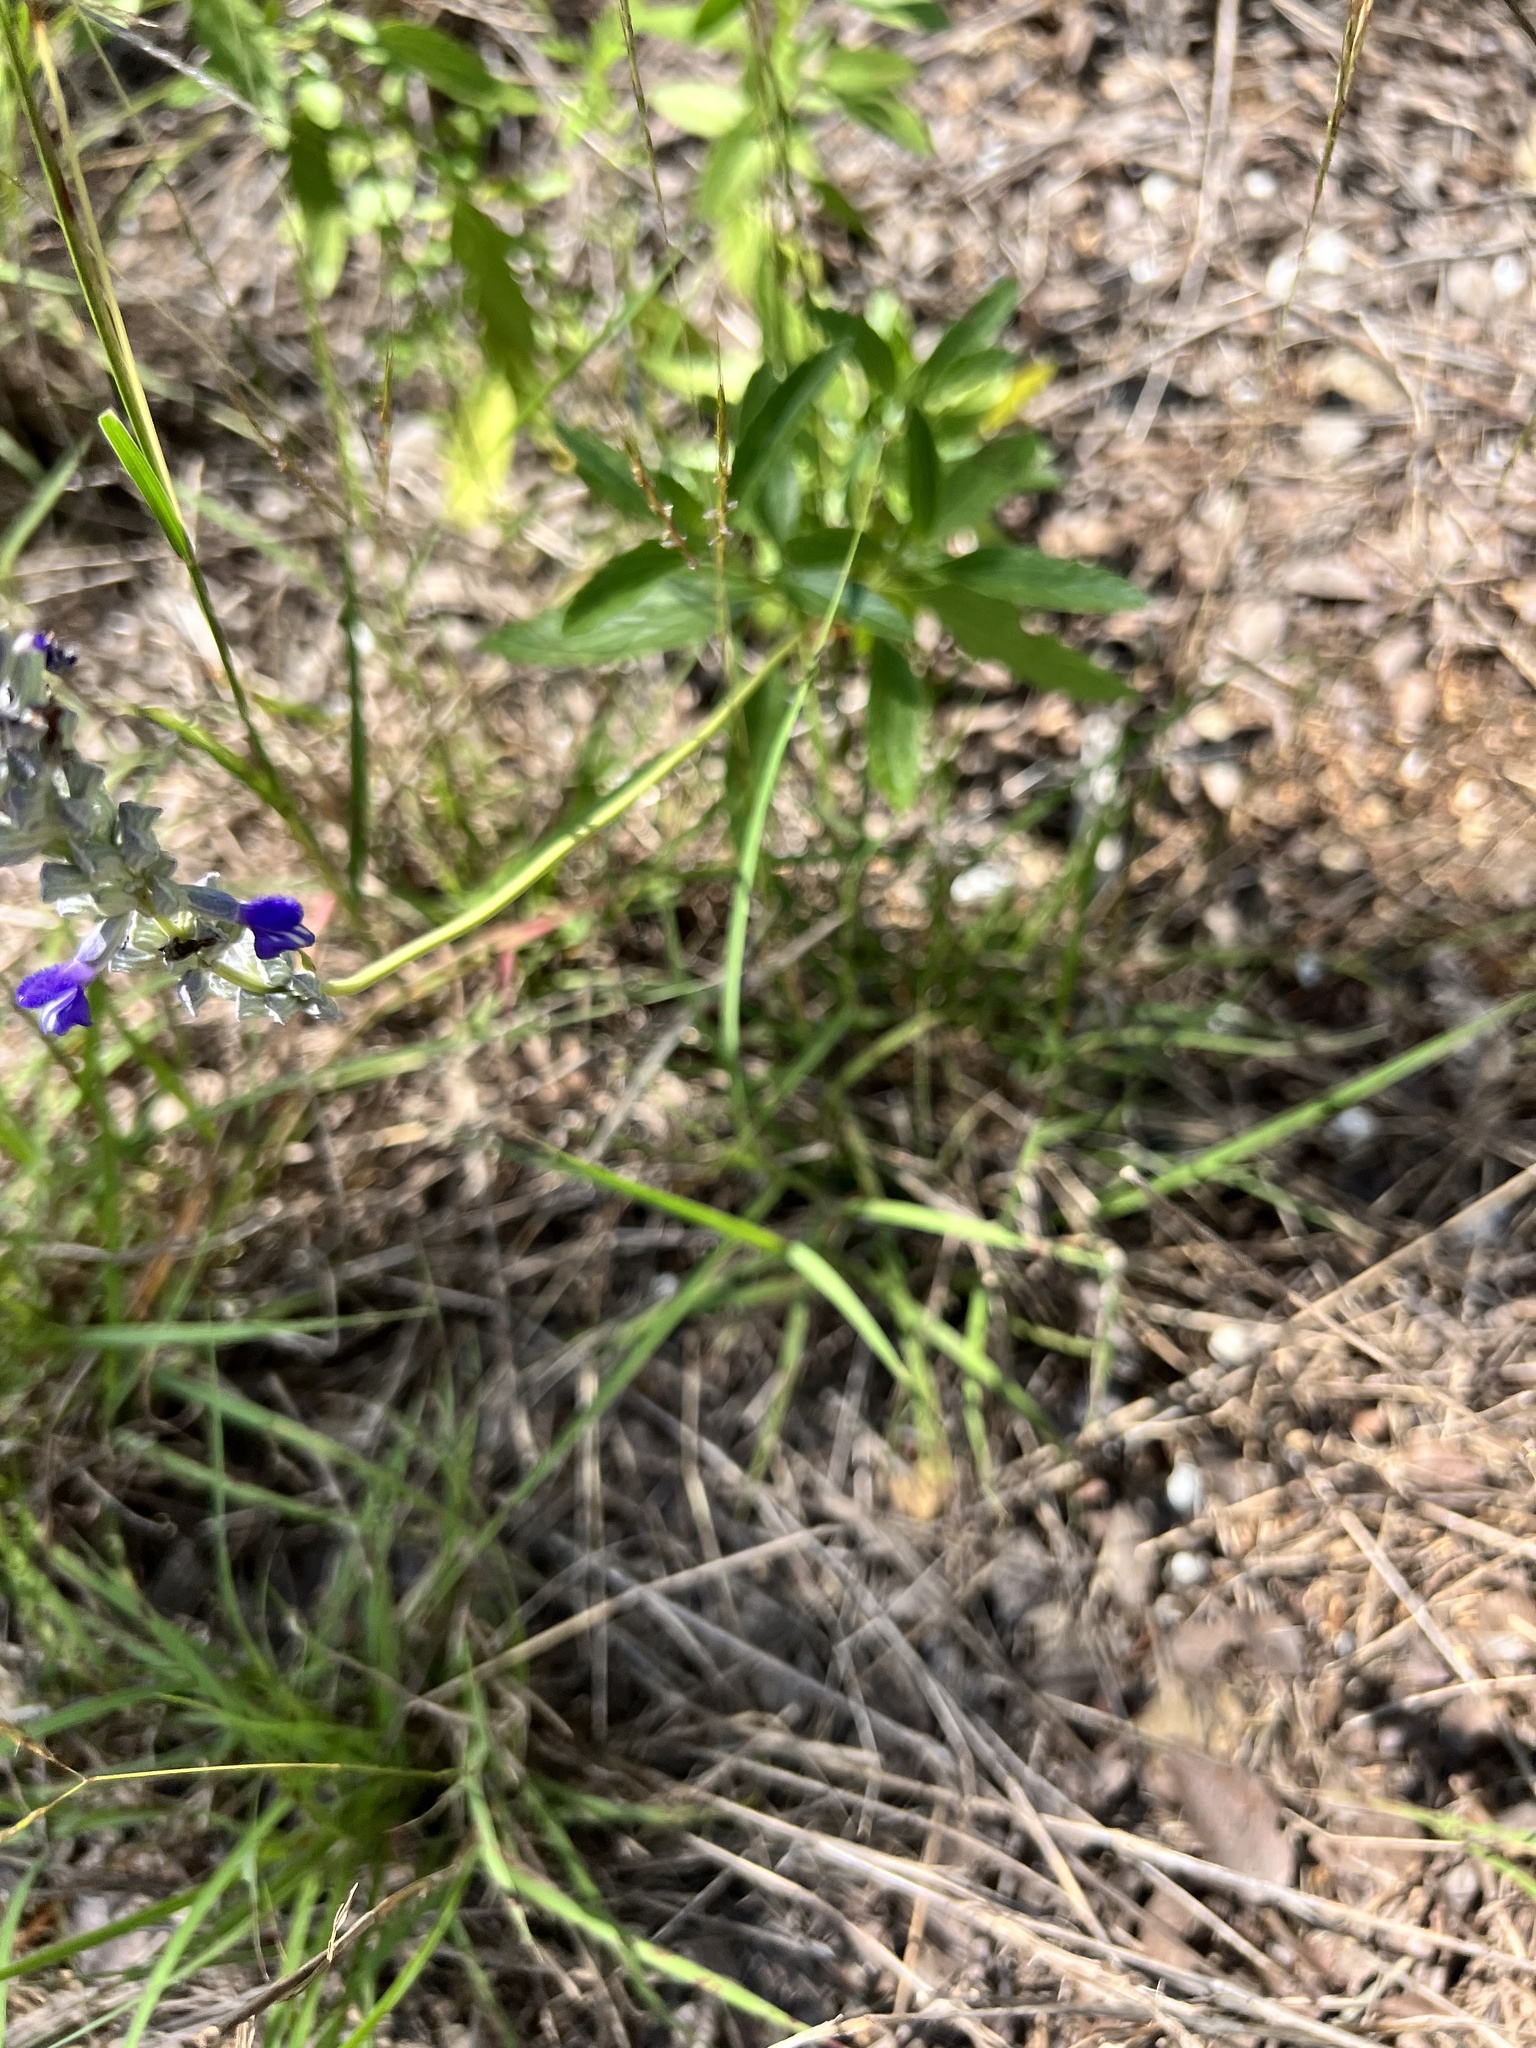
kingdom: Plantae
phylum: Tracheophyta
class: Magnoliopsida
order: Lamiales
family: Lamiaceae
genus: Salvia
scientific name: Salvia farinacea
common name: Mealy sage
